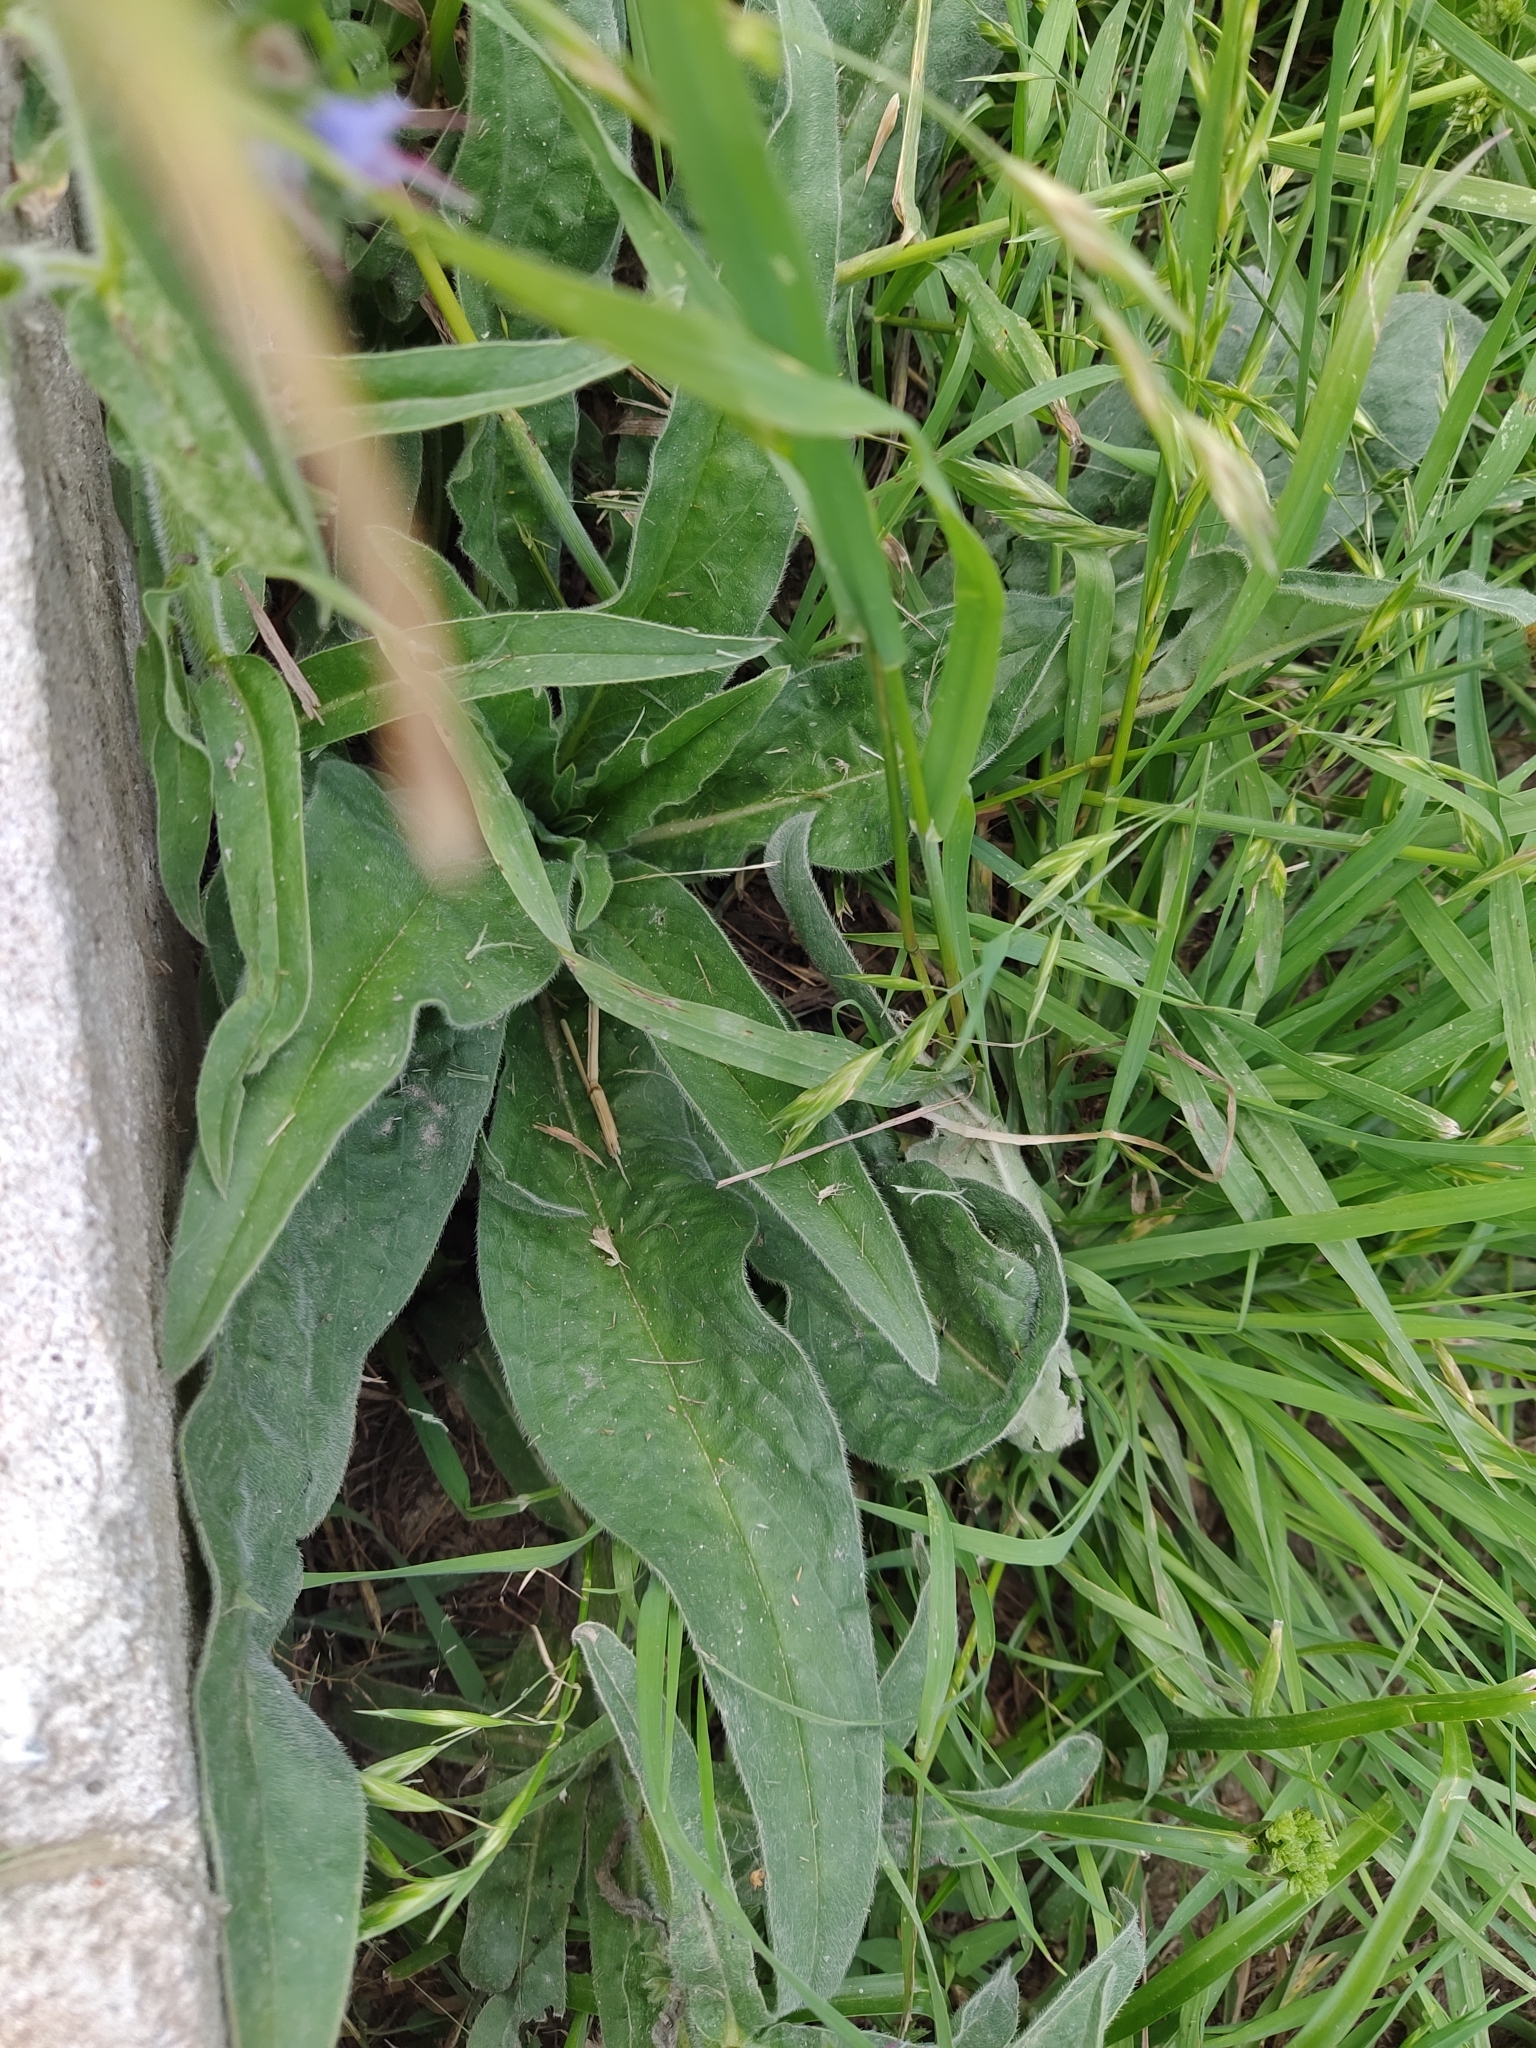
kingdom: Plantae
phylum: Tracheophyta
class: Magnoliopsida
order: Boraginales
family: Boraginaceae
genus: Echium
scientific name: Echium lusitanicum
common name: Violet-vein viper's bugloss
